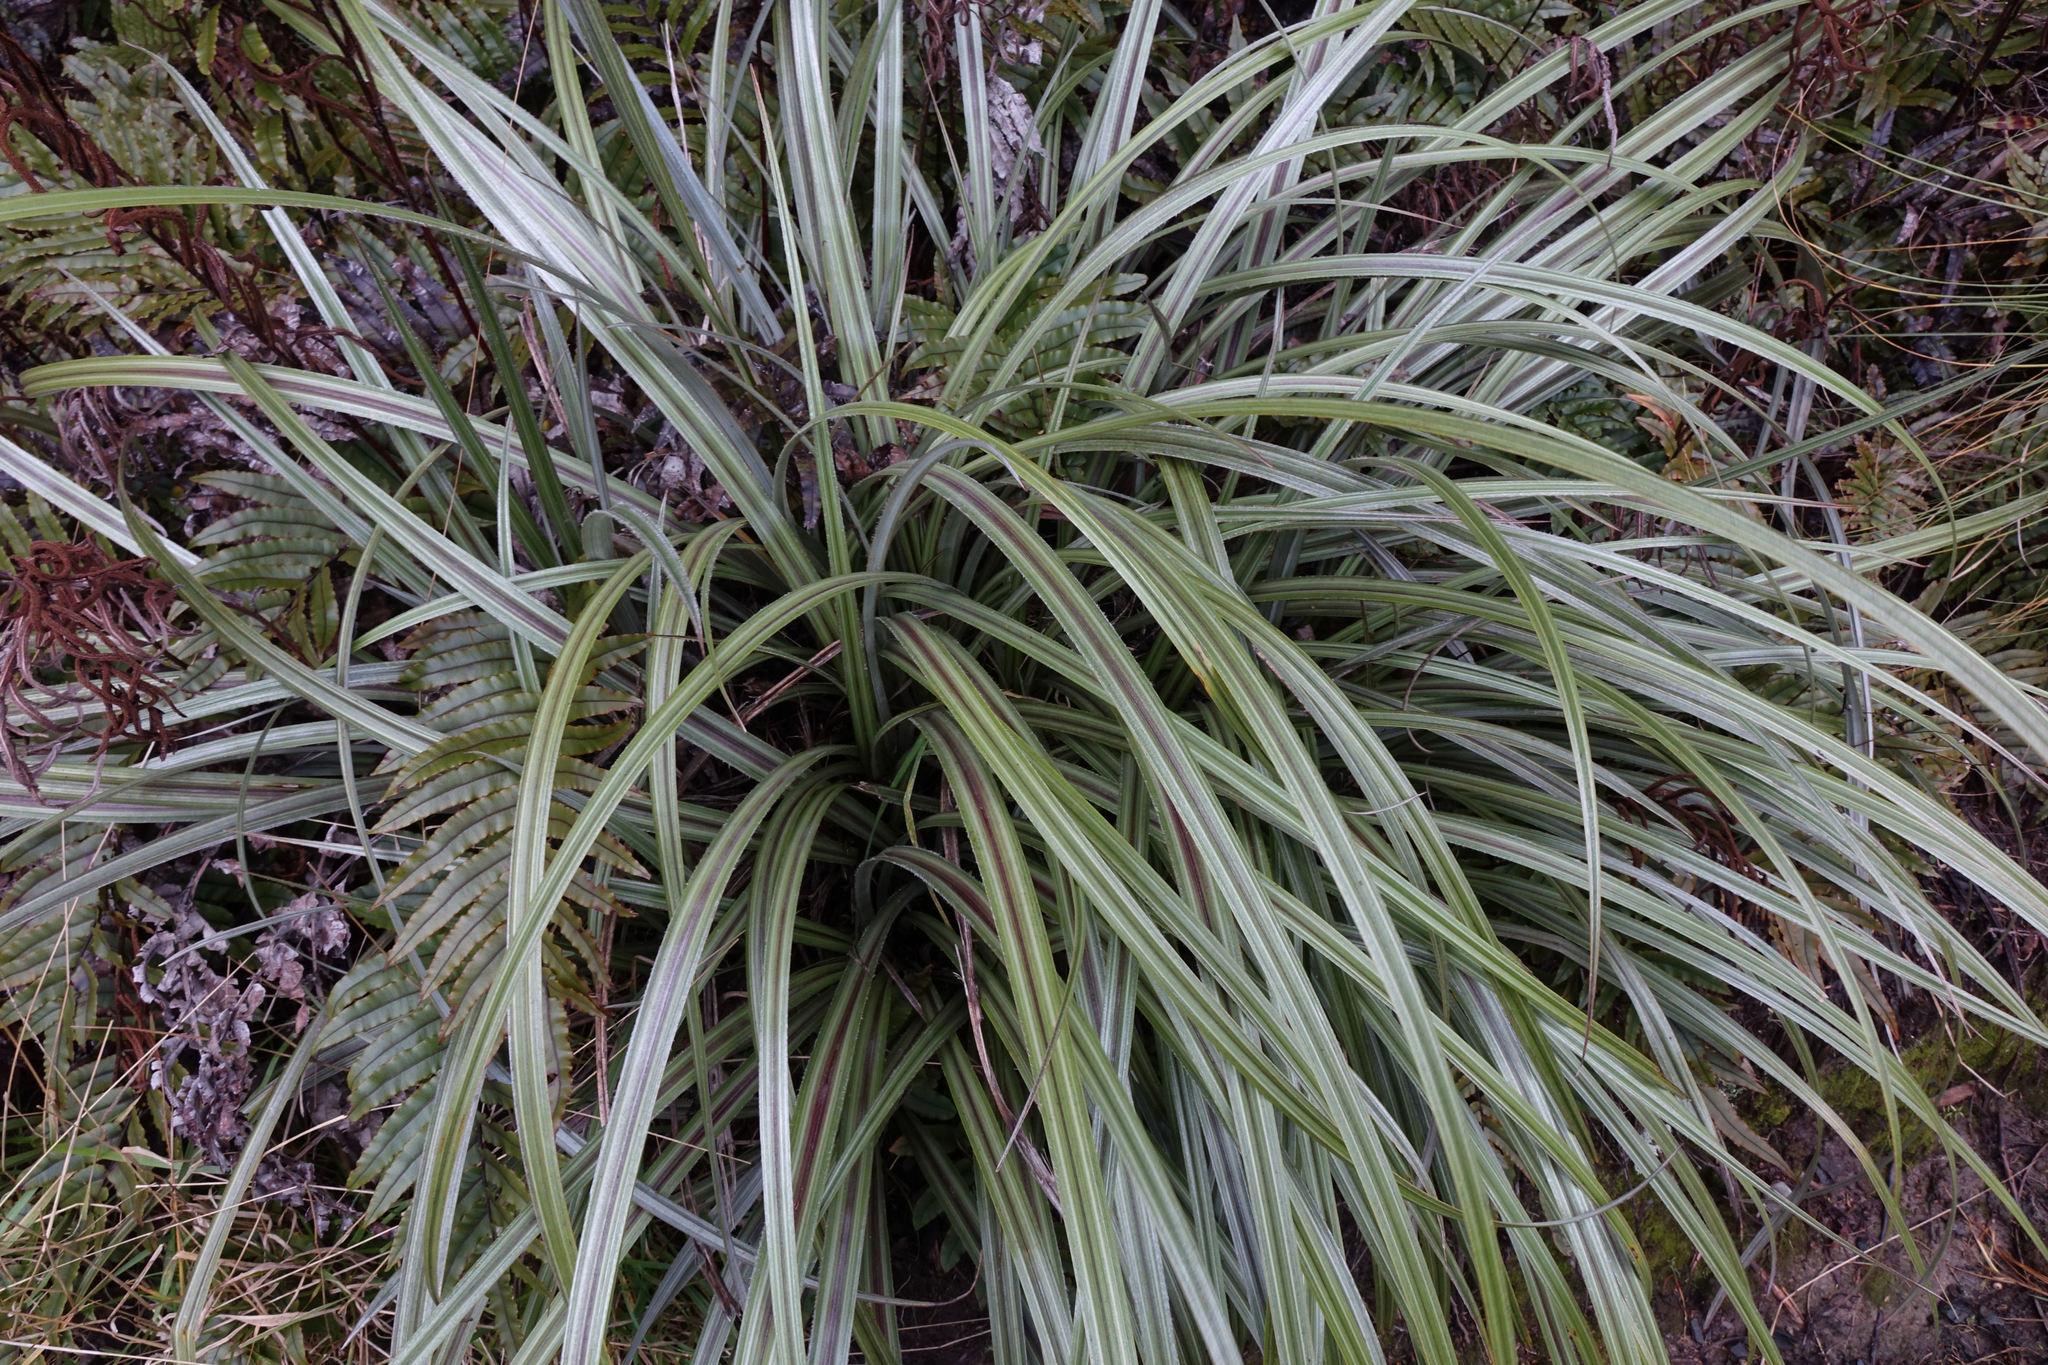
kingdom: Plantae
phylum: Tracheophyta
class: Liliopsida
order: Asparagales
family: Asteliaceae
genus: Astelia
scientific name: Astelia nervosa
